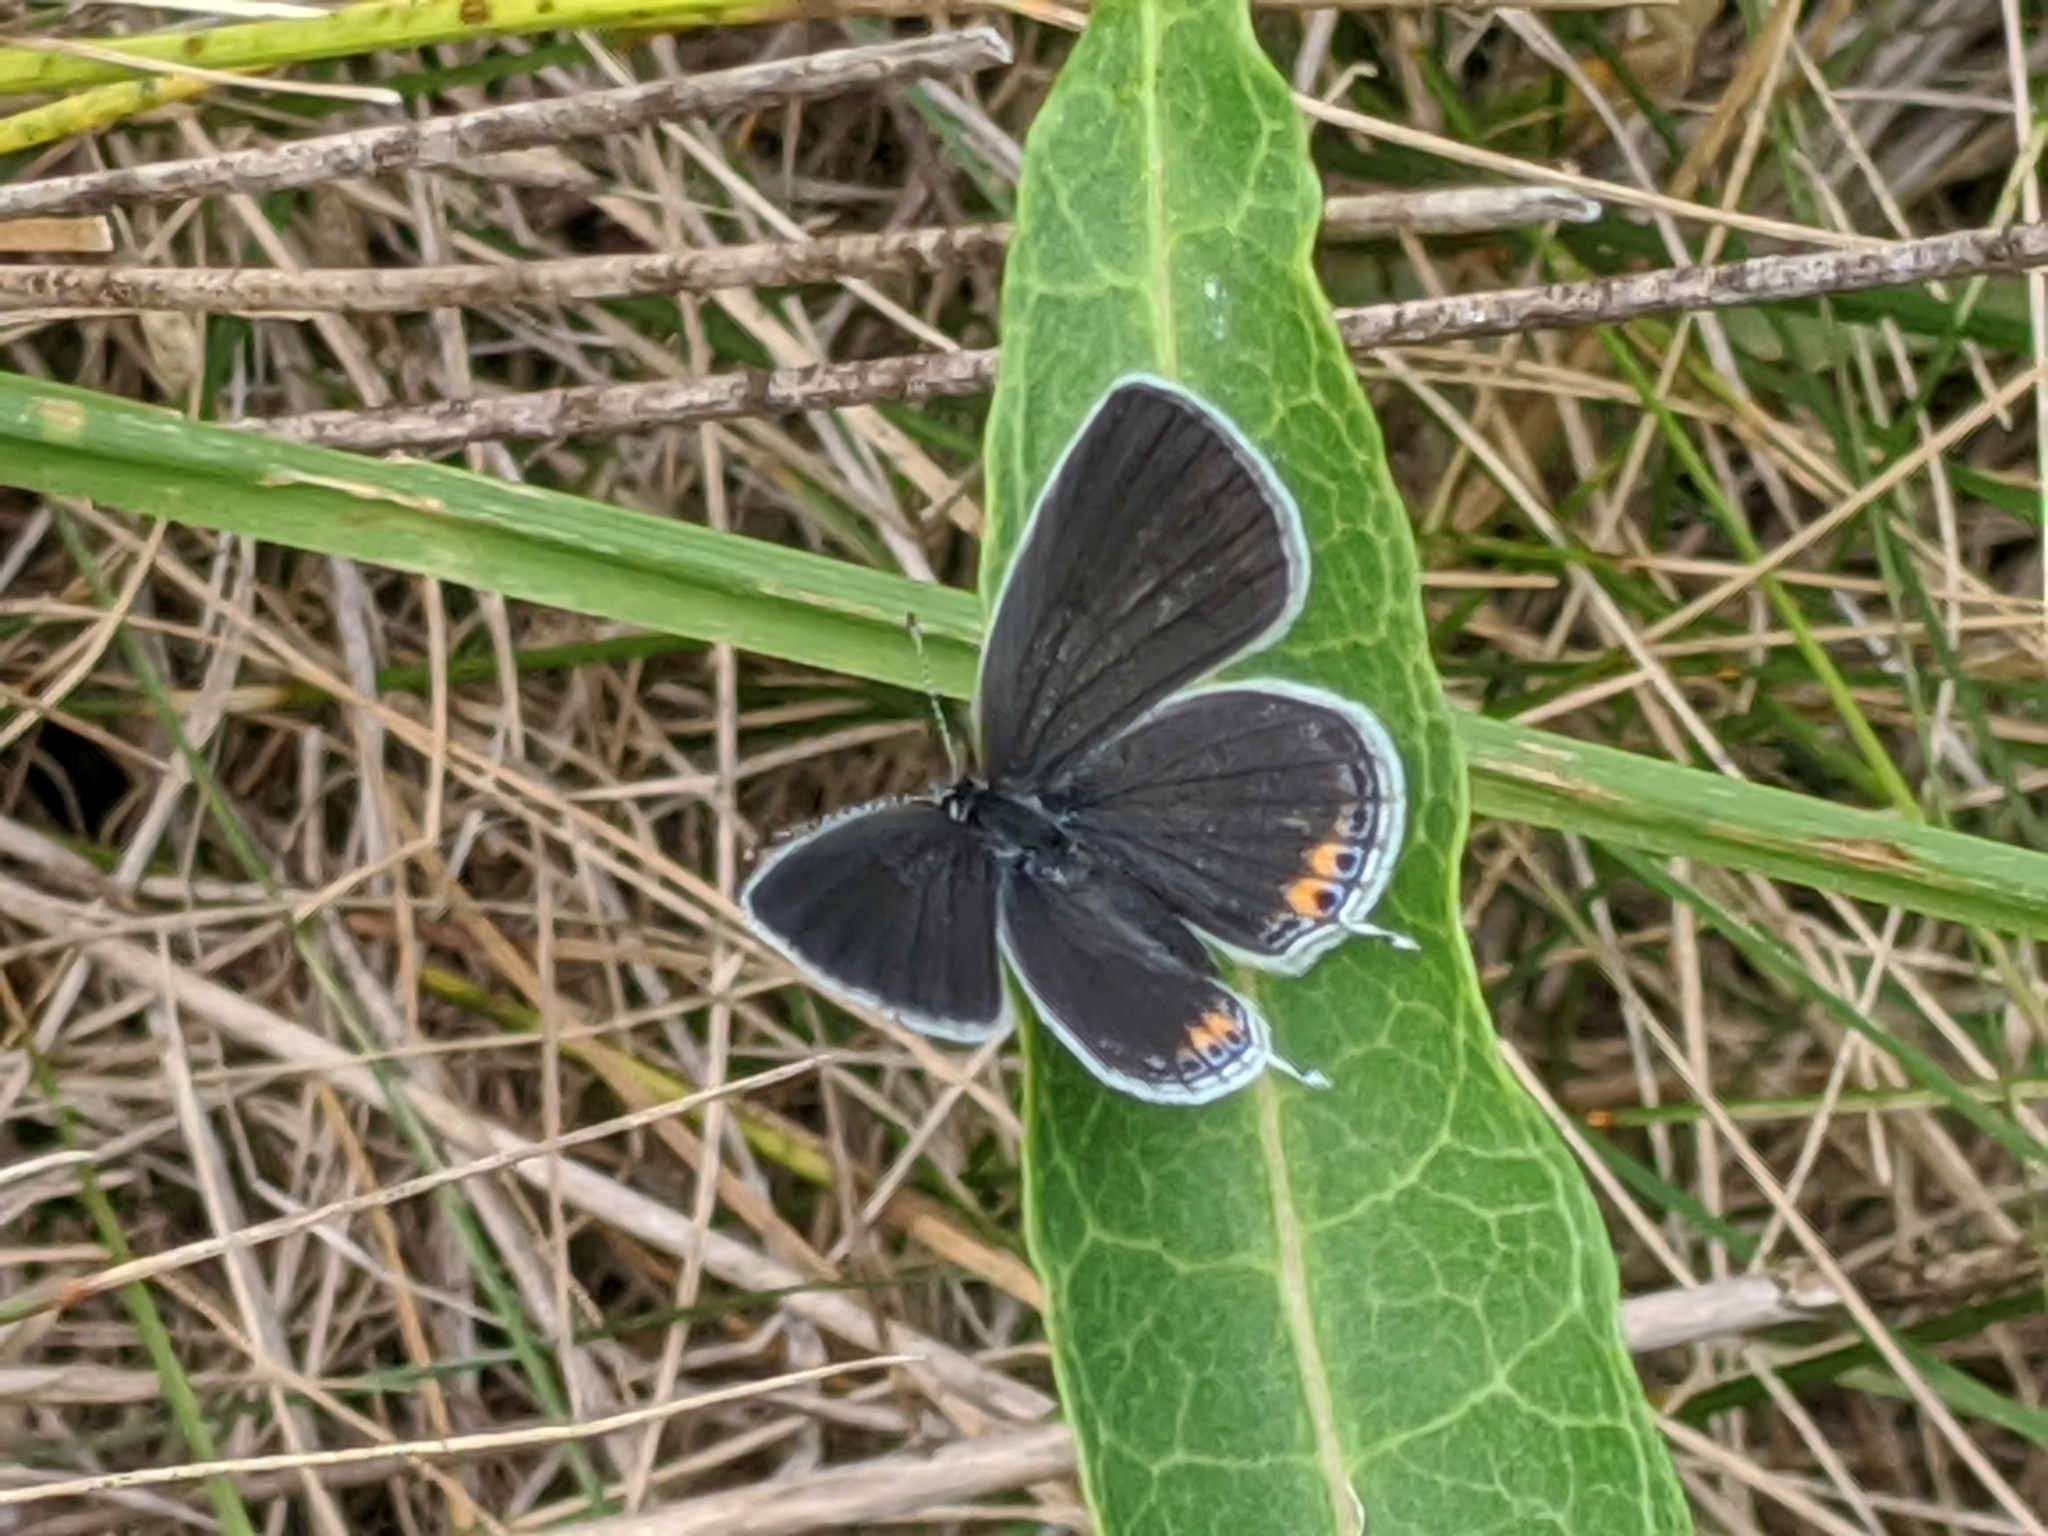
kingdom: Animalia
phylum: Arthropoda
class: Insecta
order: Lepidoptera
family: Lycaenidae
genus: Elkalyce
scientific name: Elkalyce comyntas
